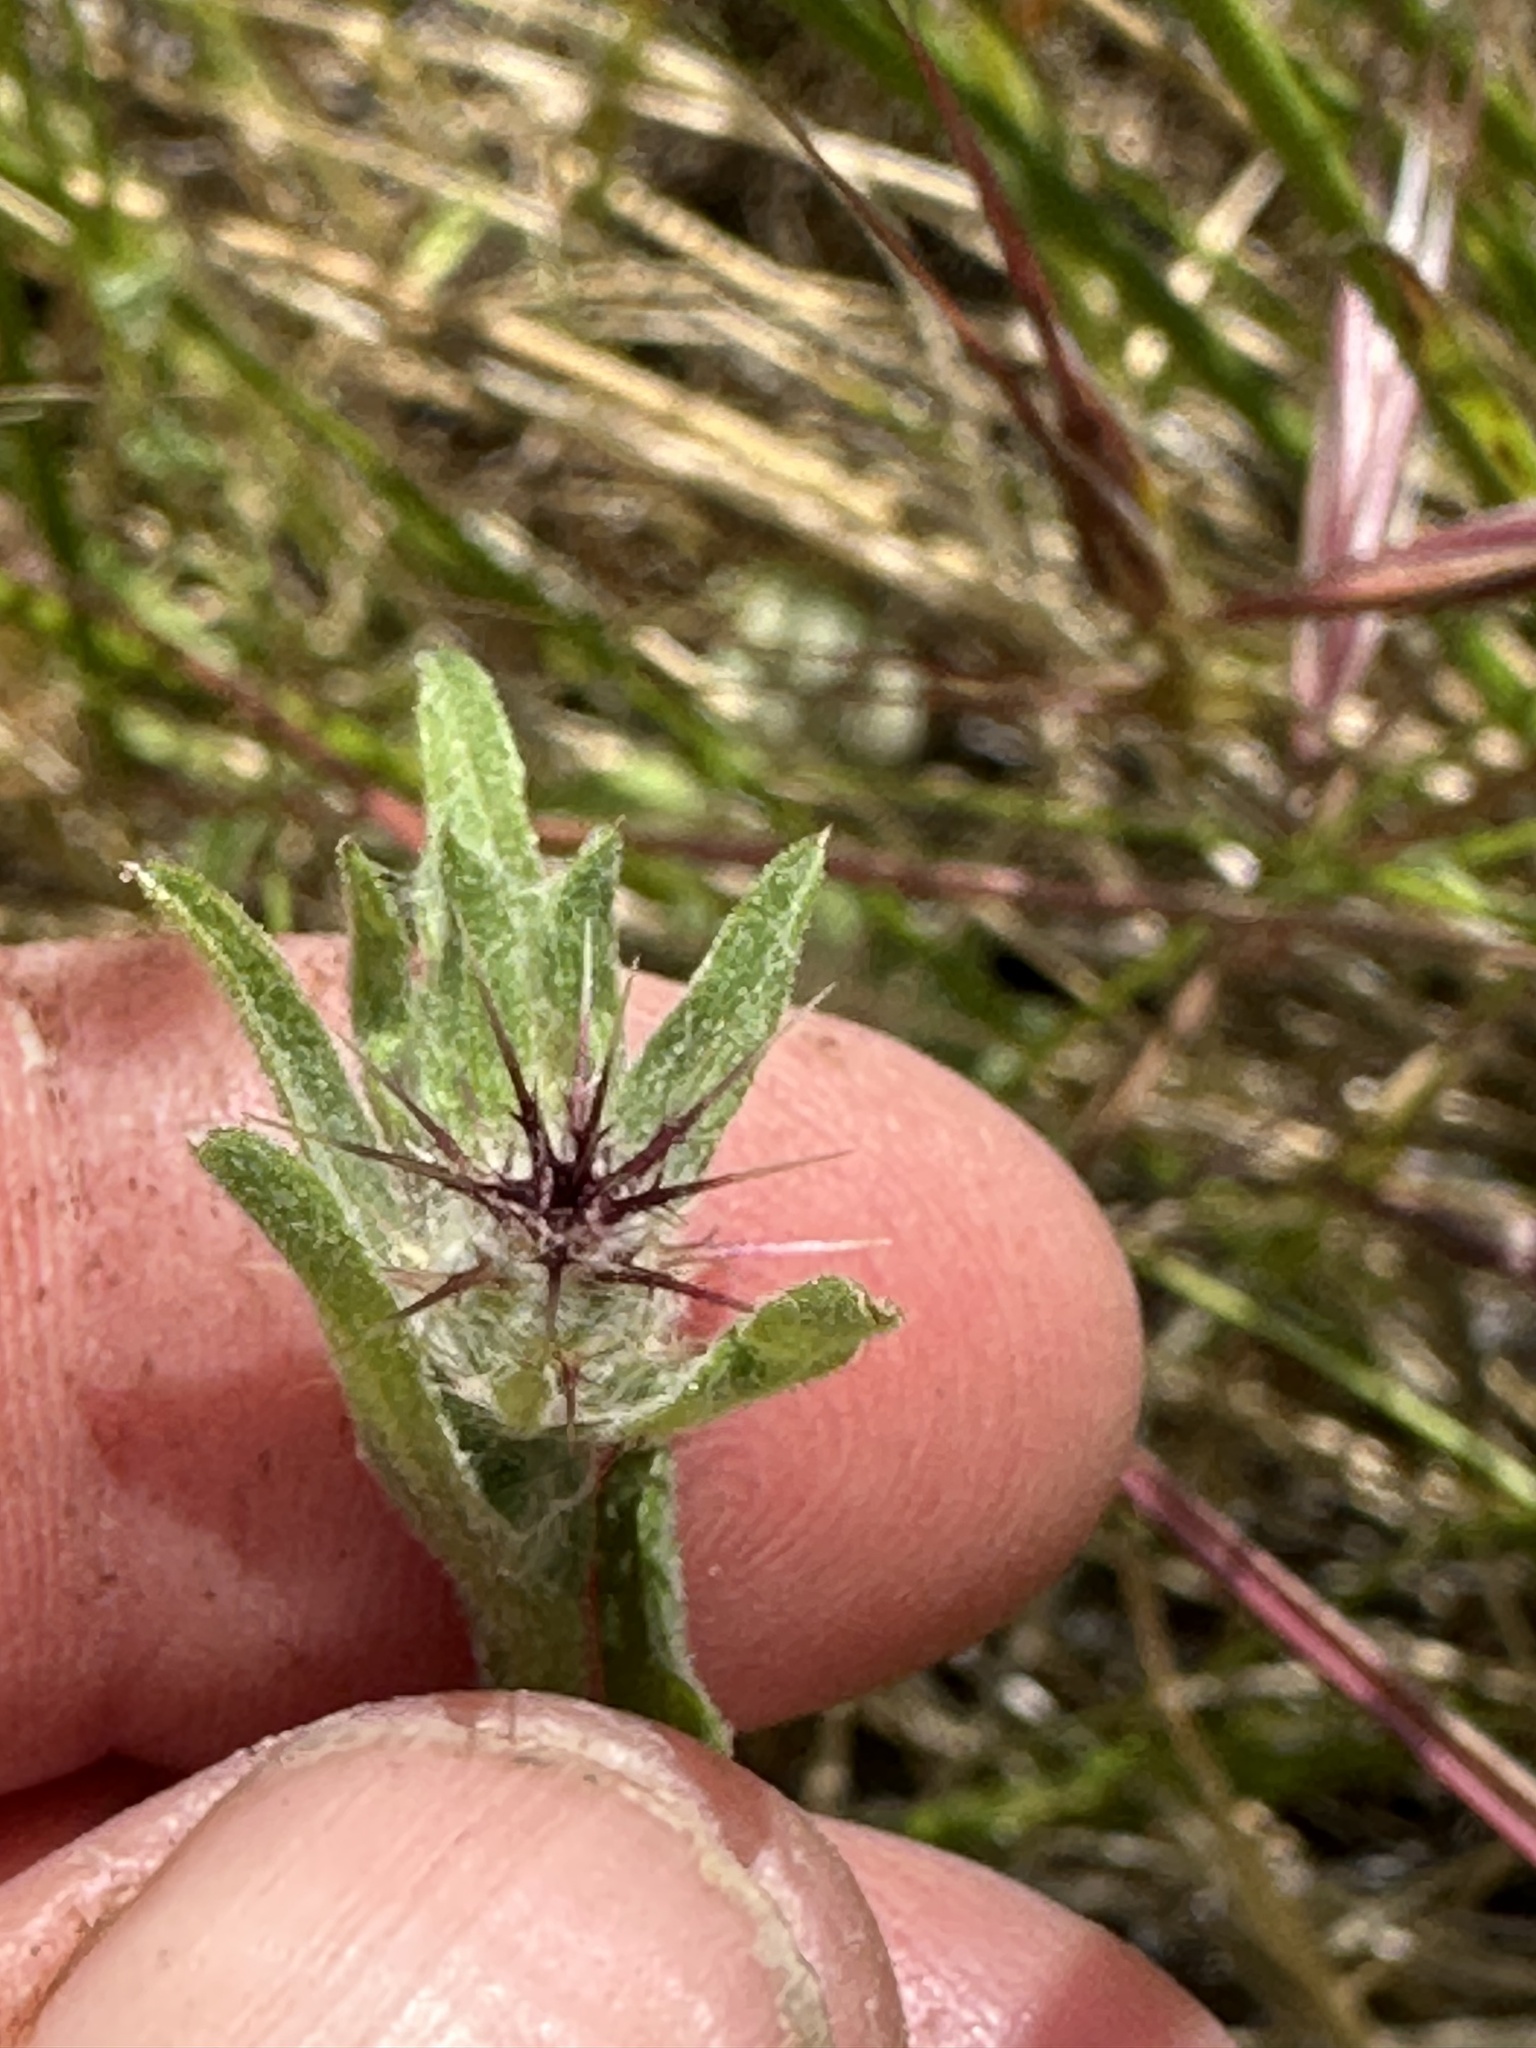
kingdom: Plantae
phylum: Tracheophyta
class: Magnoliopsida
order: Asterales
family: Asteraceae
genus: Centaurea
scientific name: Centaurea melitensis
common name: Maltese star-thistle
